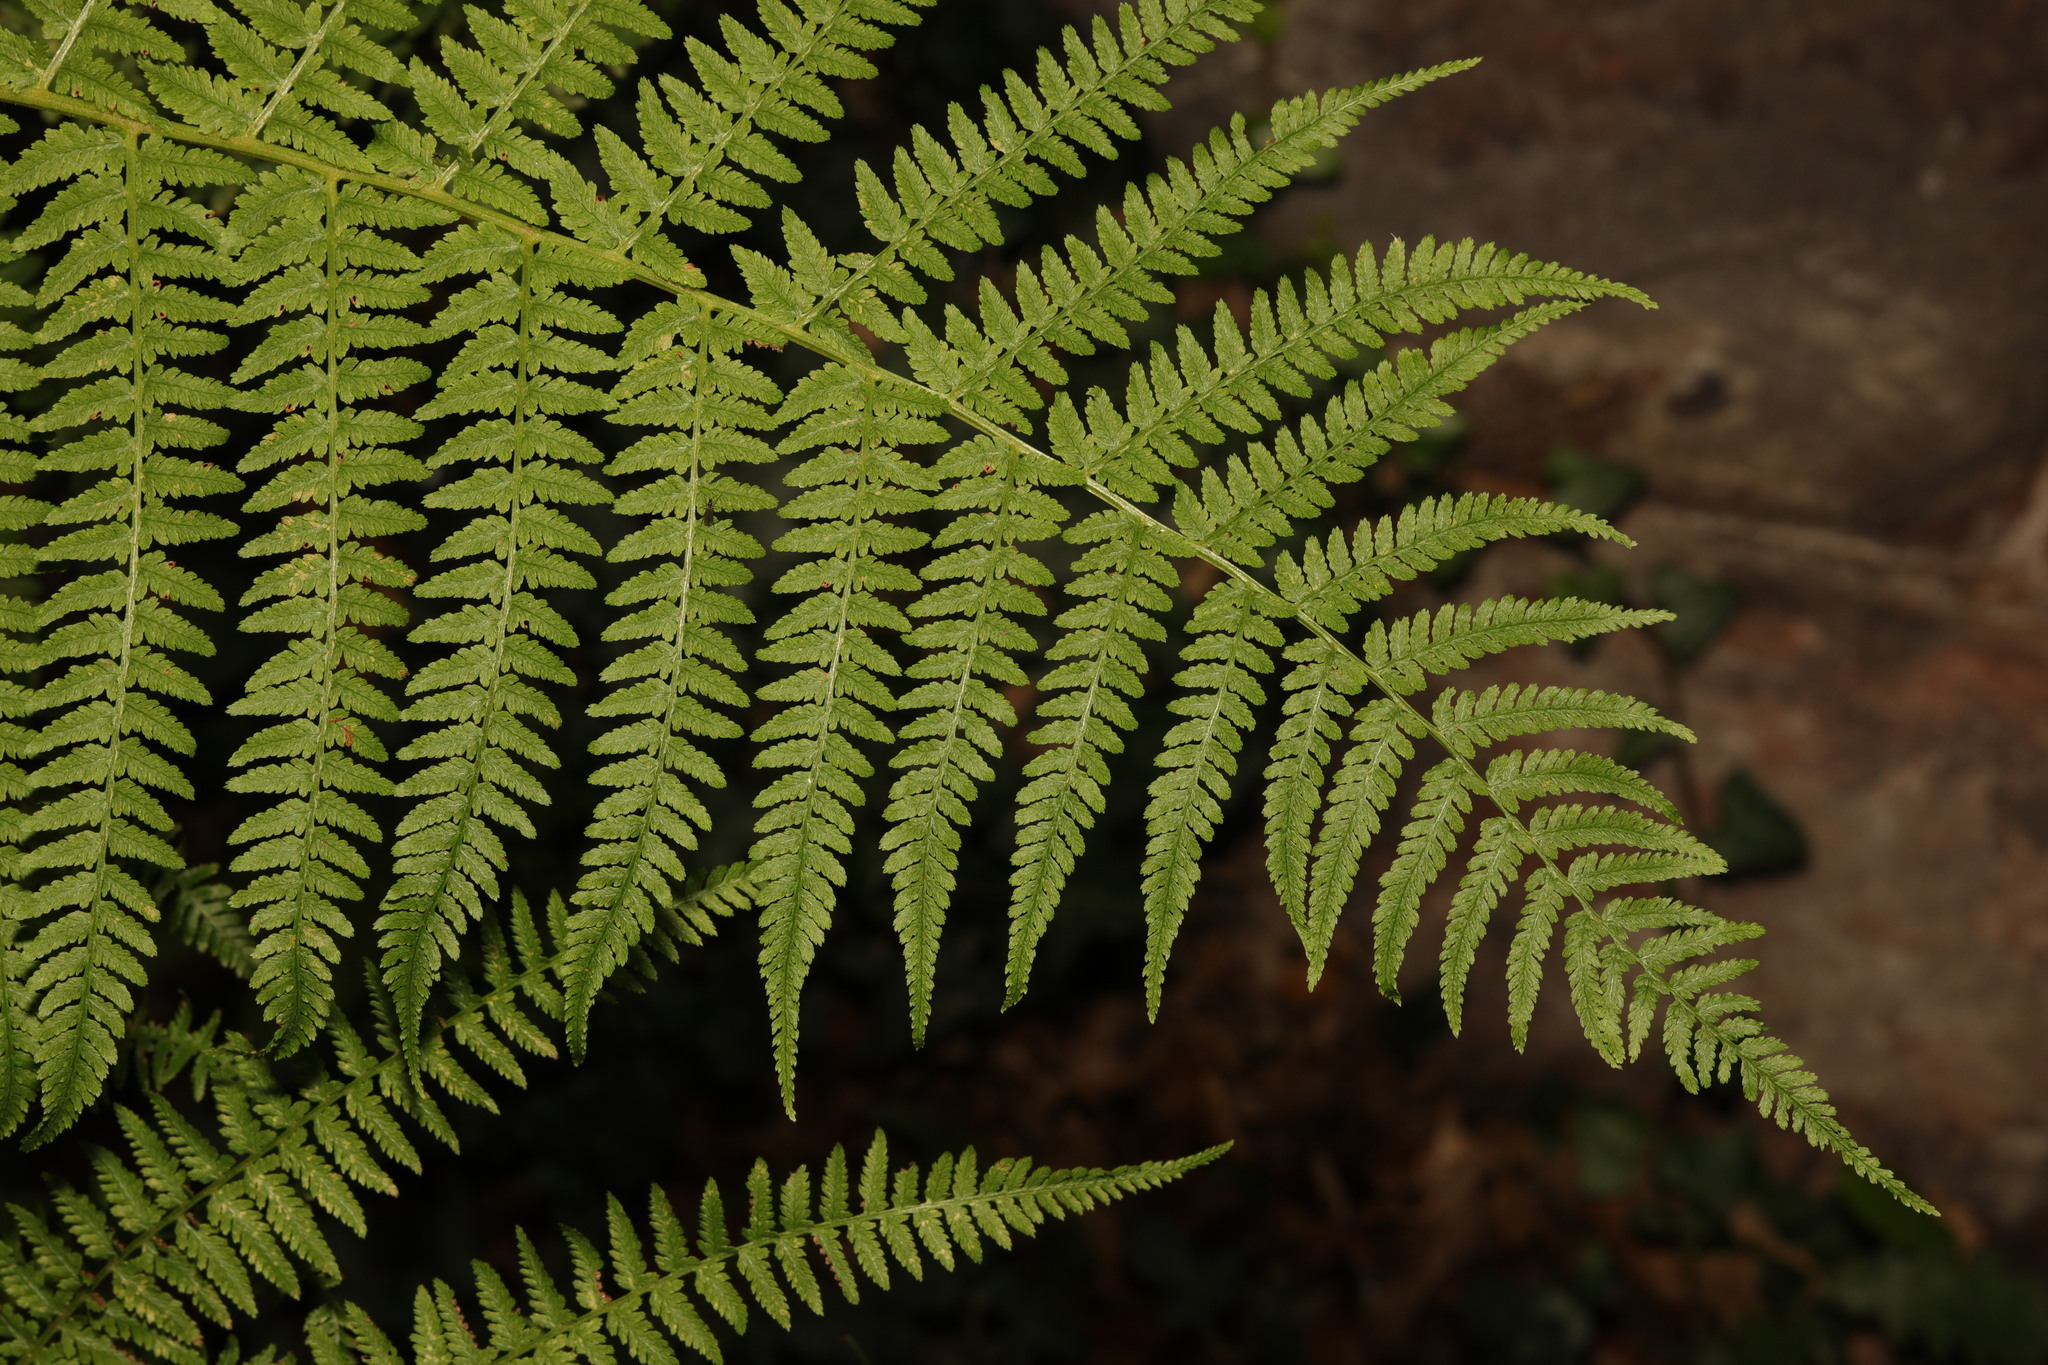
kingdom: Plantae
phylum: Tracheophyta
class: Polypodiopsida
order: Polypodiales
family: Athyriaceae
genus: Athyrium
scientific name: Athyrium filix-femina
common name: Lady fern
